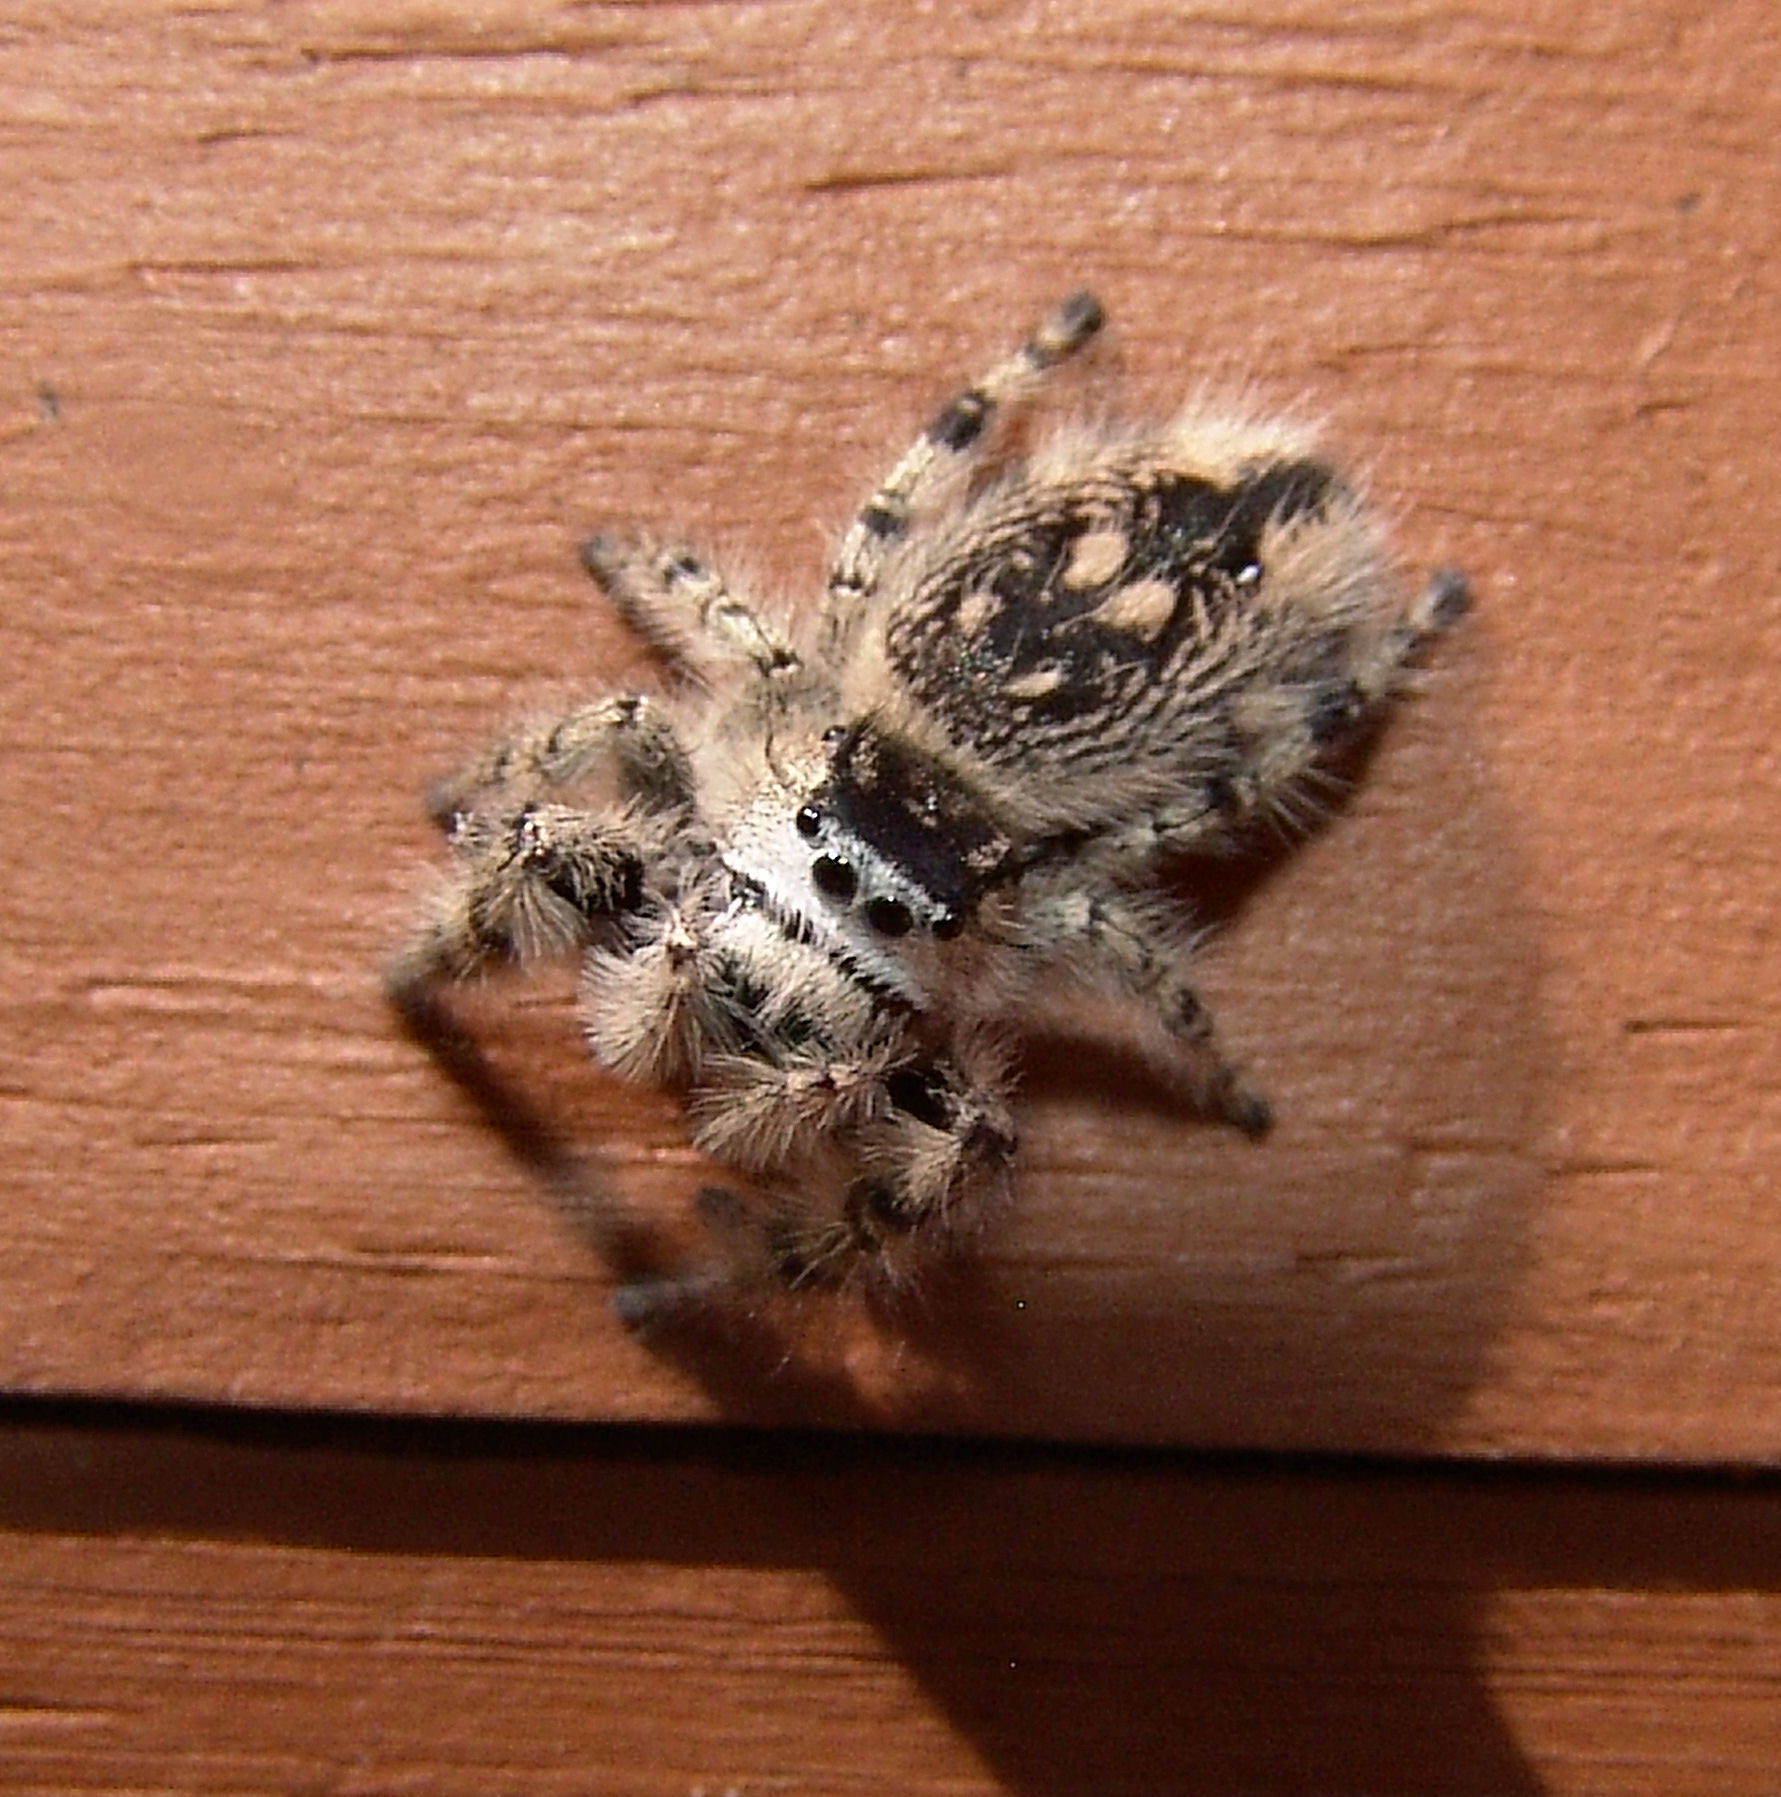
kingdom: Animalia
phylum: Arthropoda
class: Arachnida
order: Araneae
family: Salticidae
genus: Phidippus
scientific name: Phidippus otiosus
